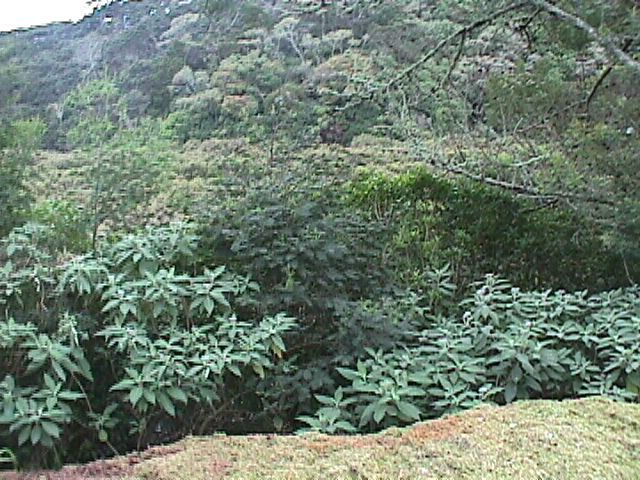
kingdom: Plantae
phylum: Tracheophyta
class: Magnoliopsida
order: Solanales
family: Solanaceae
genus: Solanum
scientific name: Solanum mauritianum
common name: Earleaf nightshade
